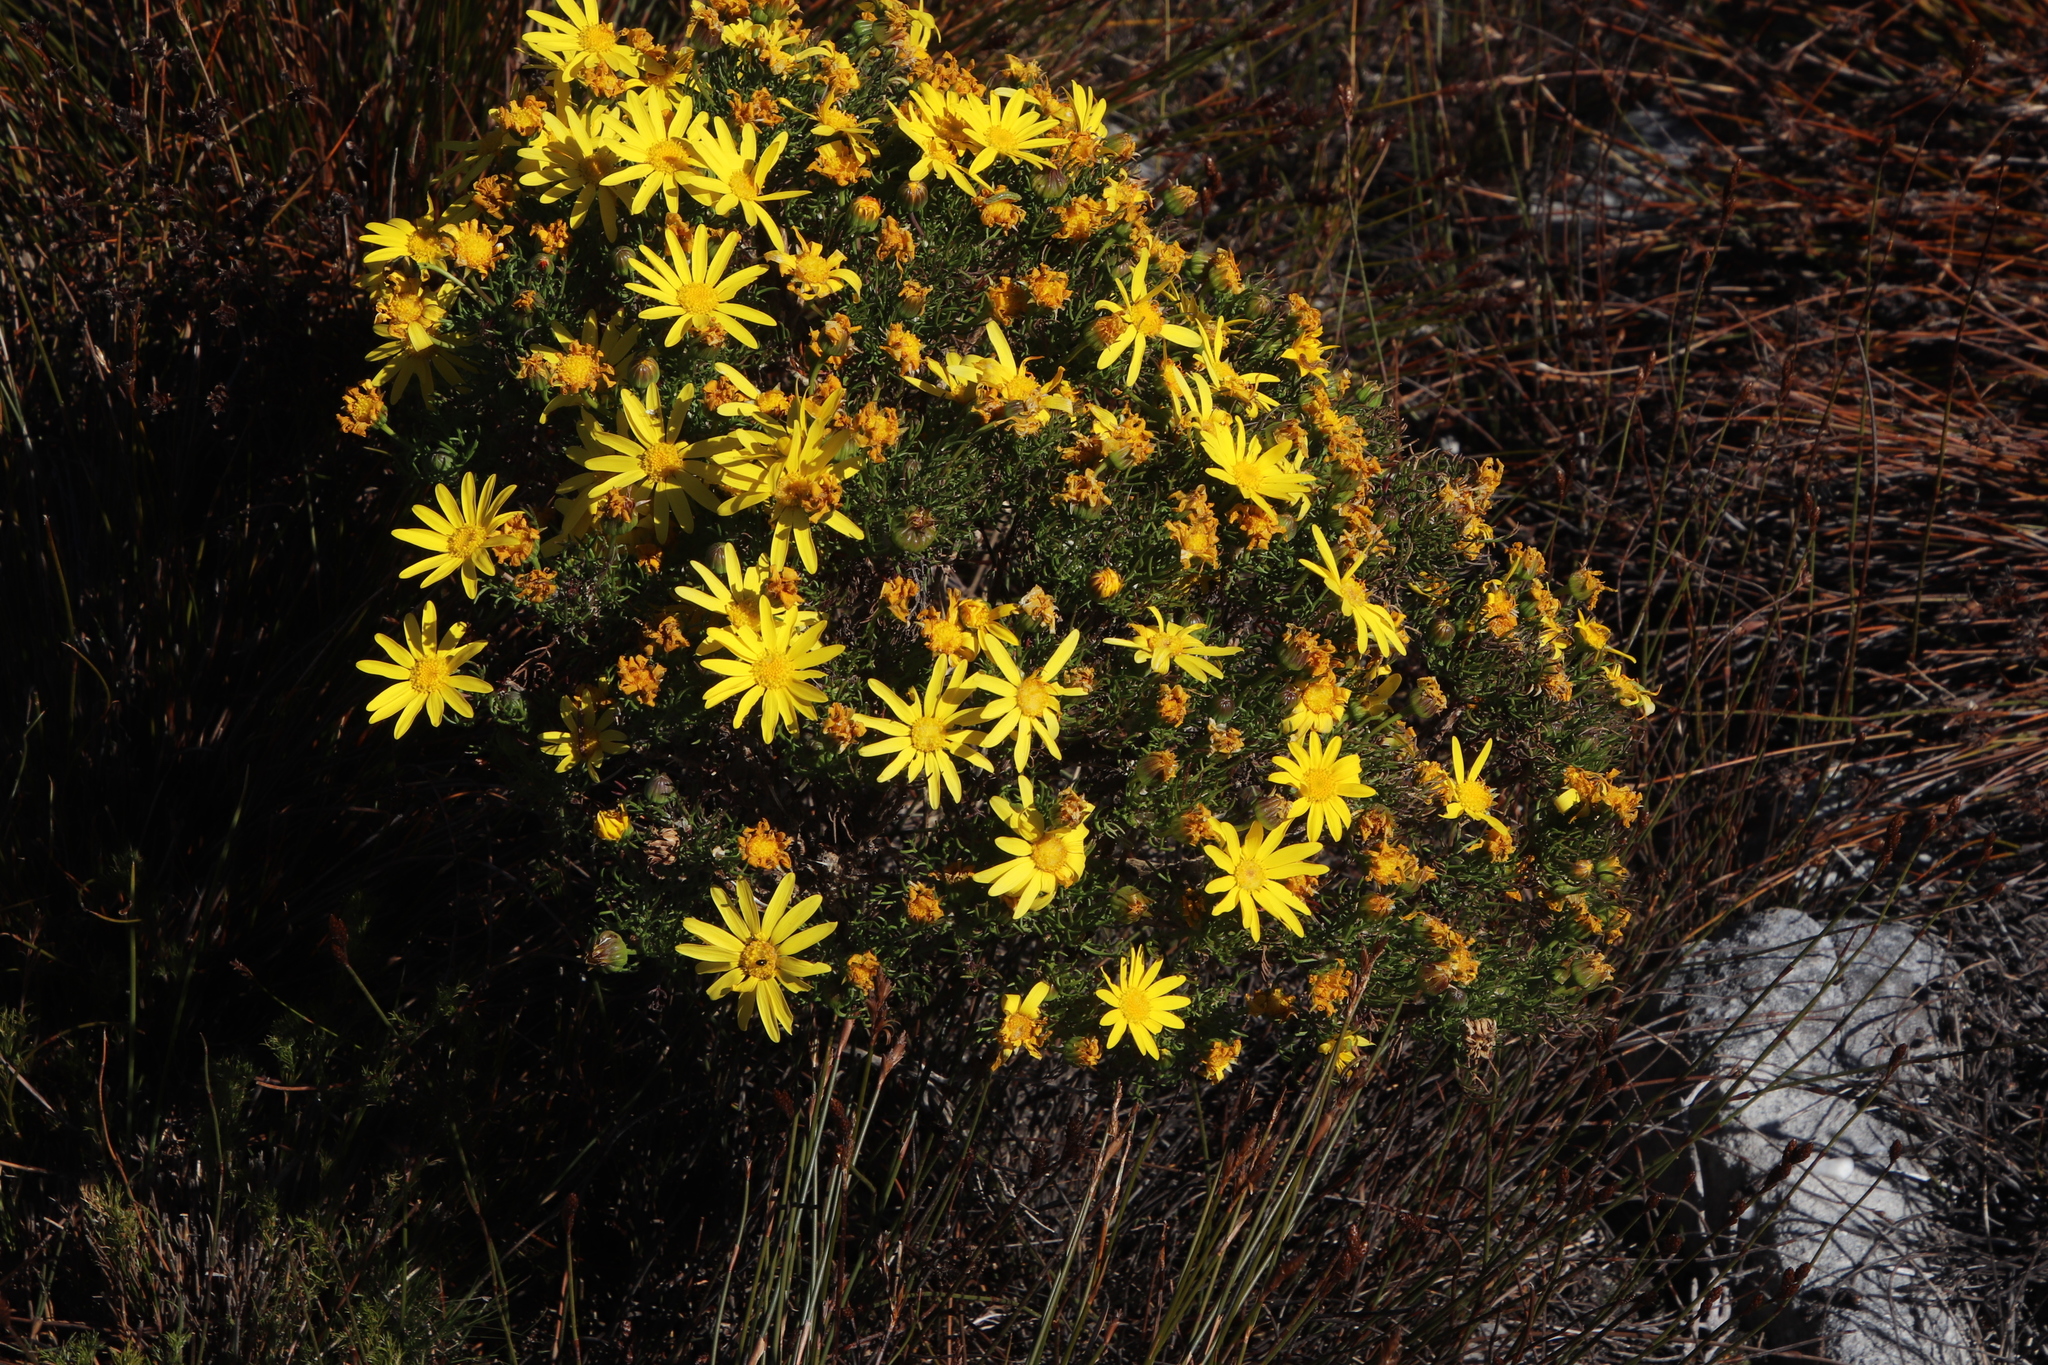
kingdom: Plantae
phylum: Tracheophyta
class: Magnoliopsida
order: Asterales
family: Asteraceae
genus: Euryops
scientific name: Euryops abrotanifolius
